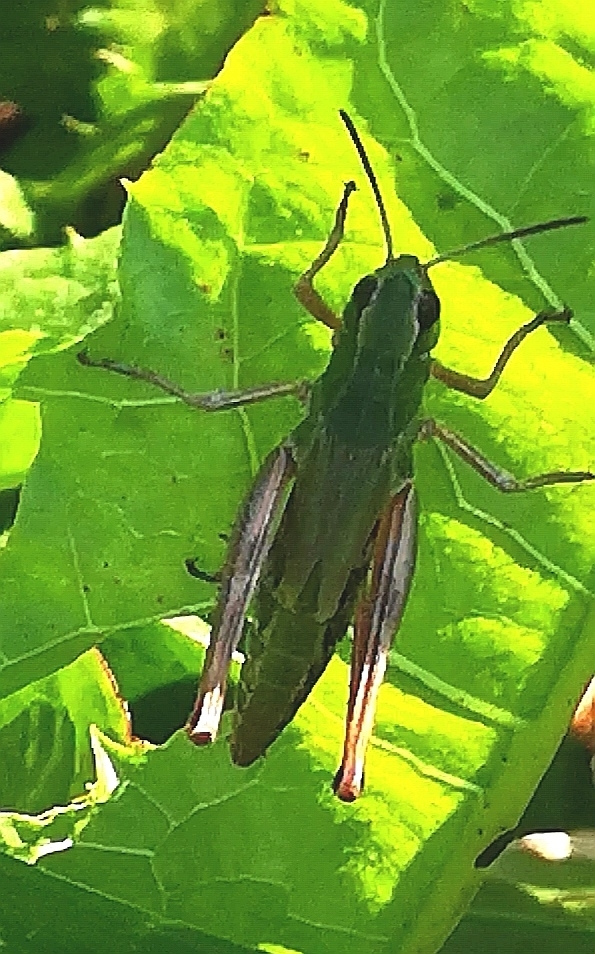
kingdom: Animalia
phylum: Arthropoda
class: Insecta
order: Orthoptera
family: Acrididae
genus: Pseudochorthippus
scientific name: Pseudochorthippus parallelus
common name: Meadow grasshopper
